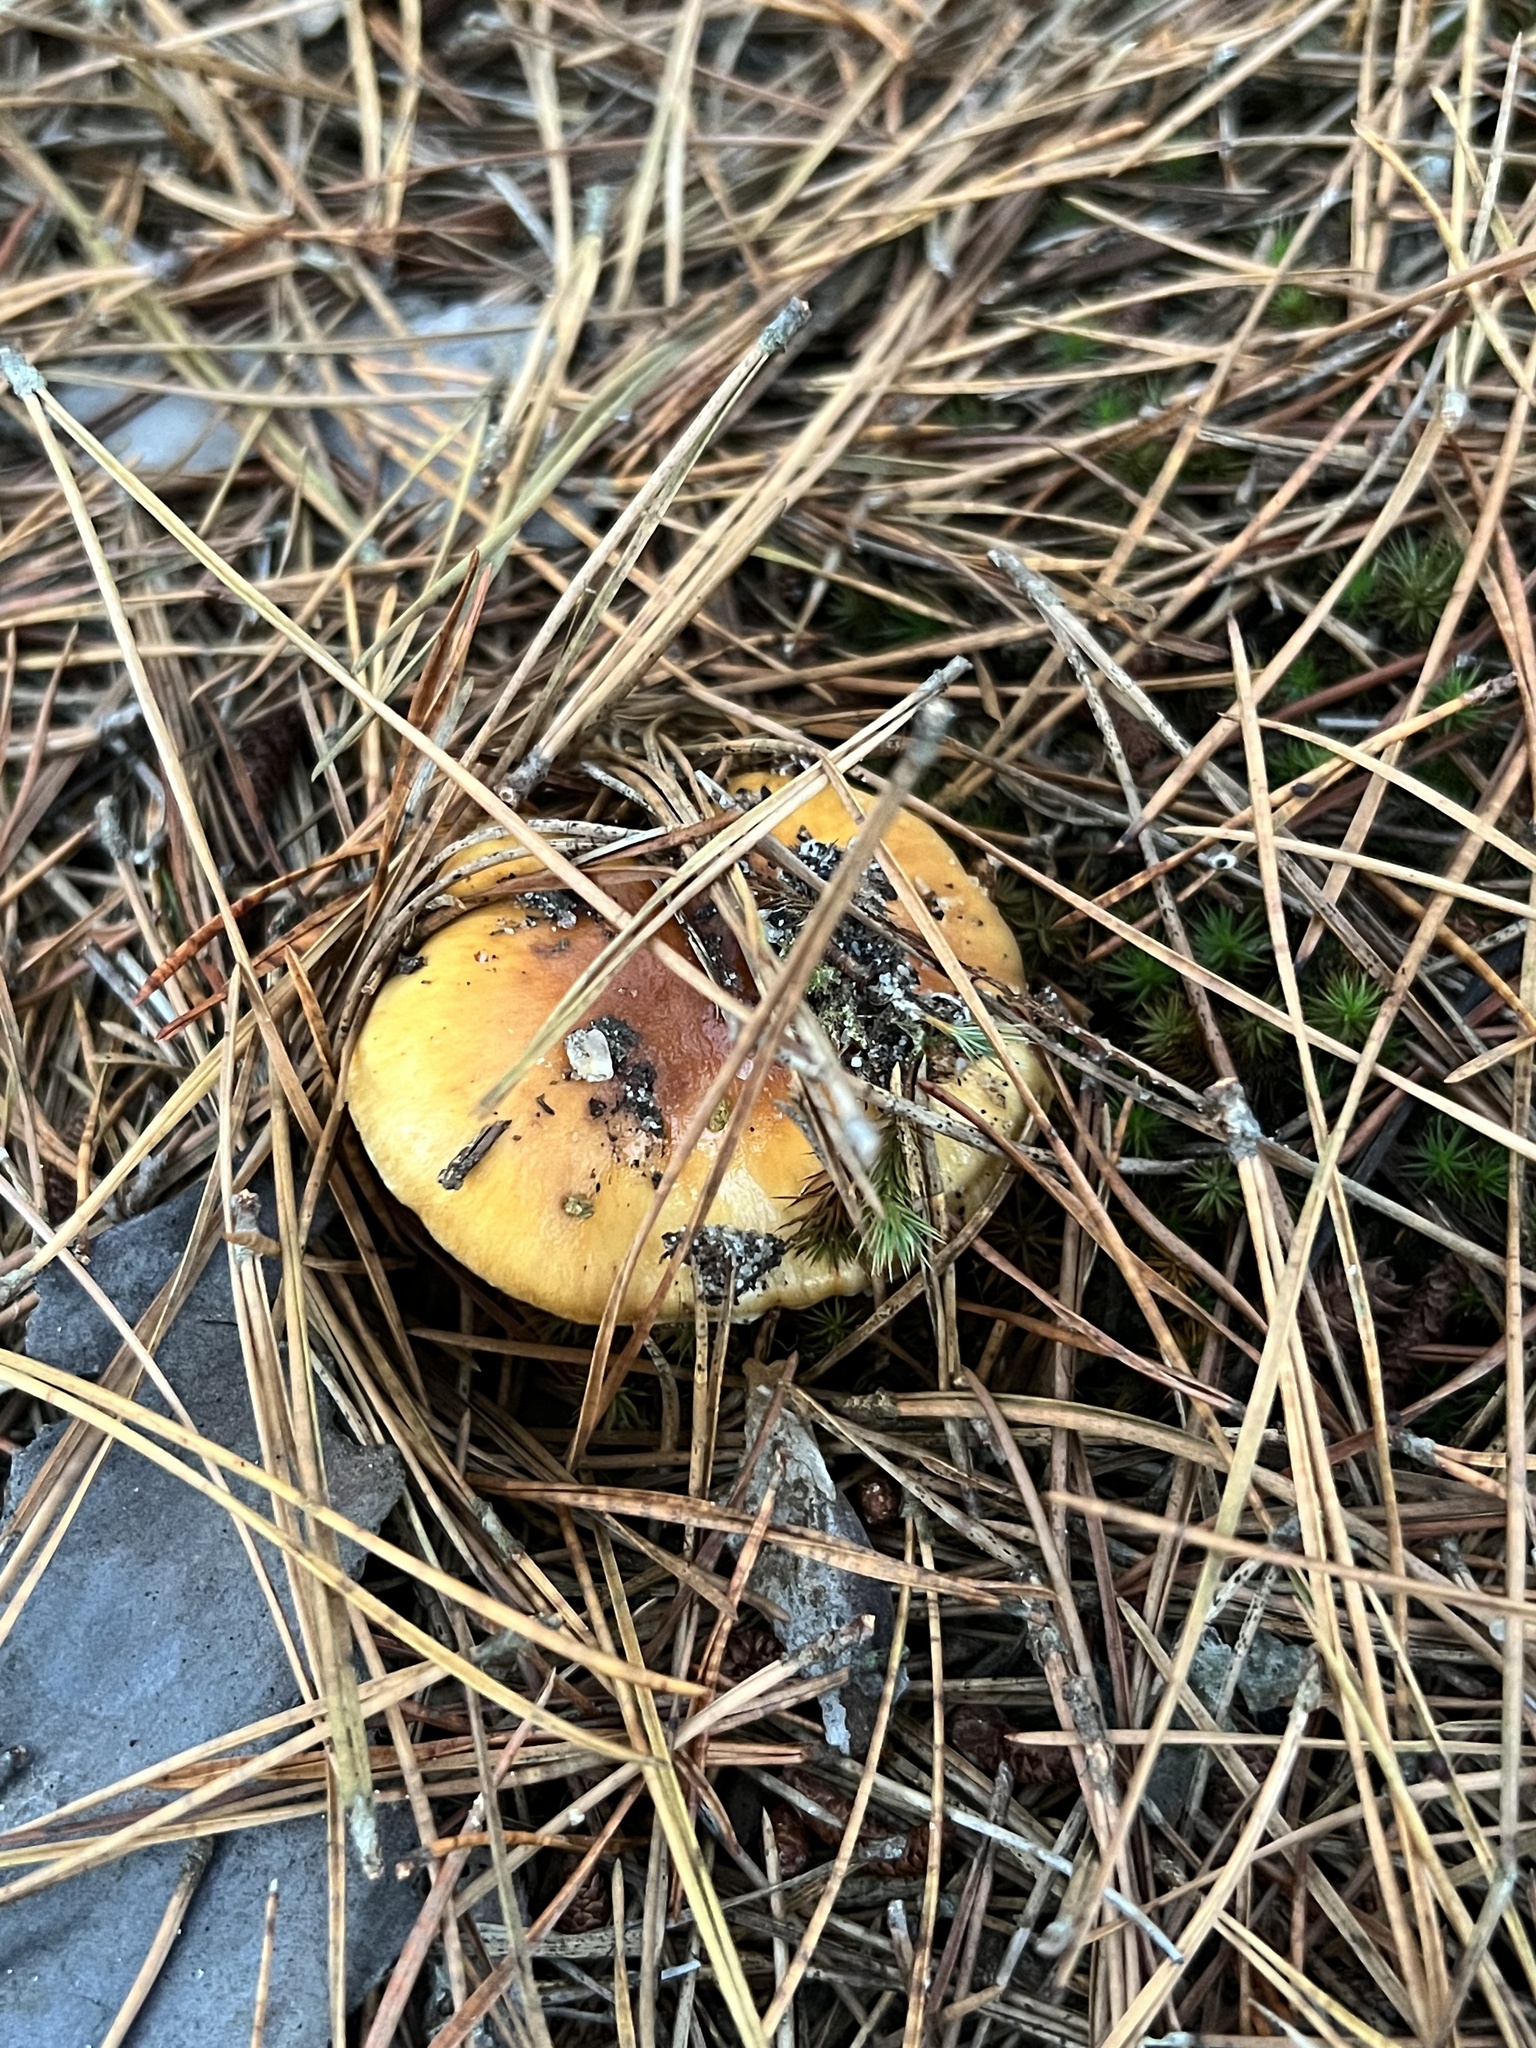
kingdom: Fungi
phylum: Basidiomycota
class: Agaricomycetes
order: Agaricales
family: Cortinariaceae
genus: Cortinarius
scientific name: Cortinarius mucosus
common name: Orange webcap
